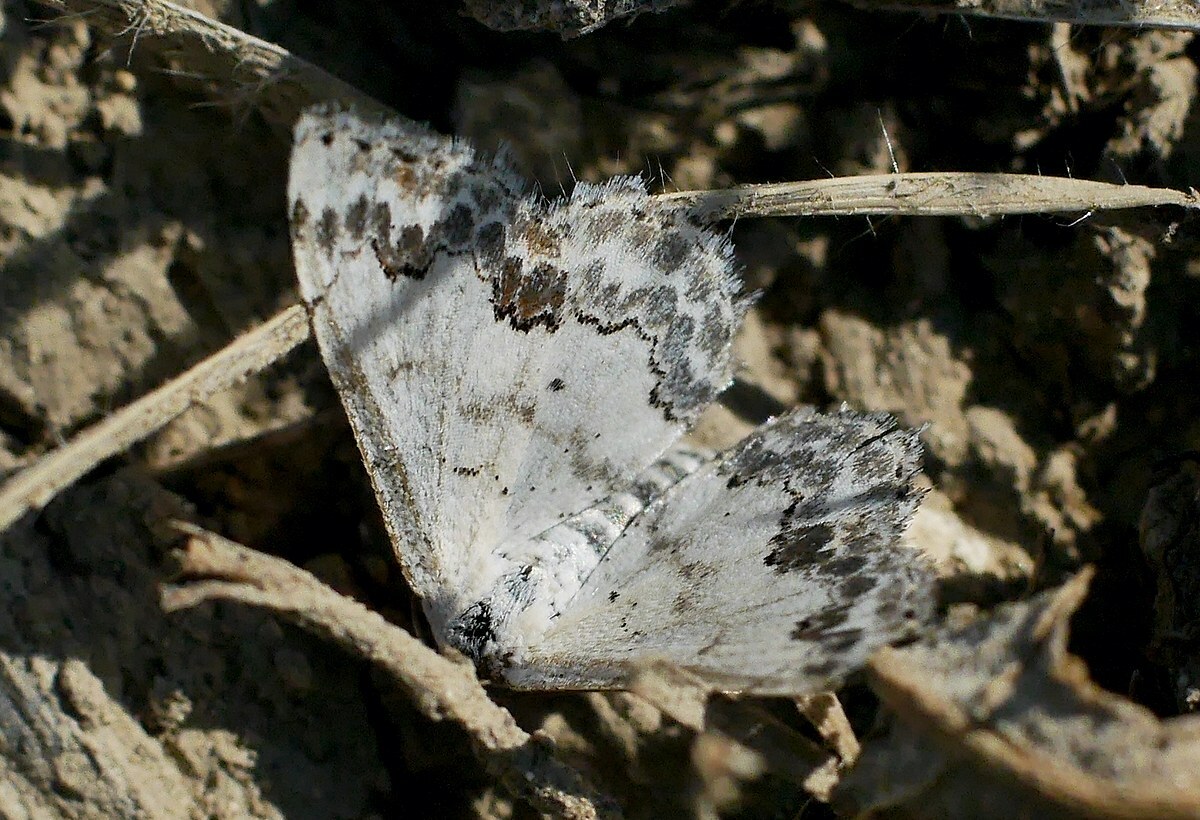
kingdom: Animalia
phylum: Arthropoda
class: Insecta
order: Lepidoptera
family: Geometridae
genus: Scopula
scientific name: Scopula decorata
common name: Middle lace border
